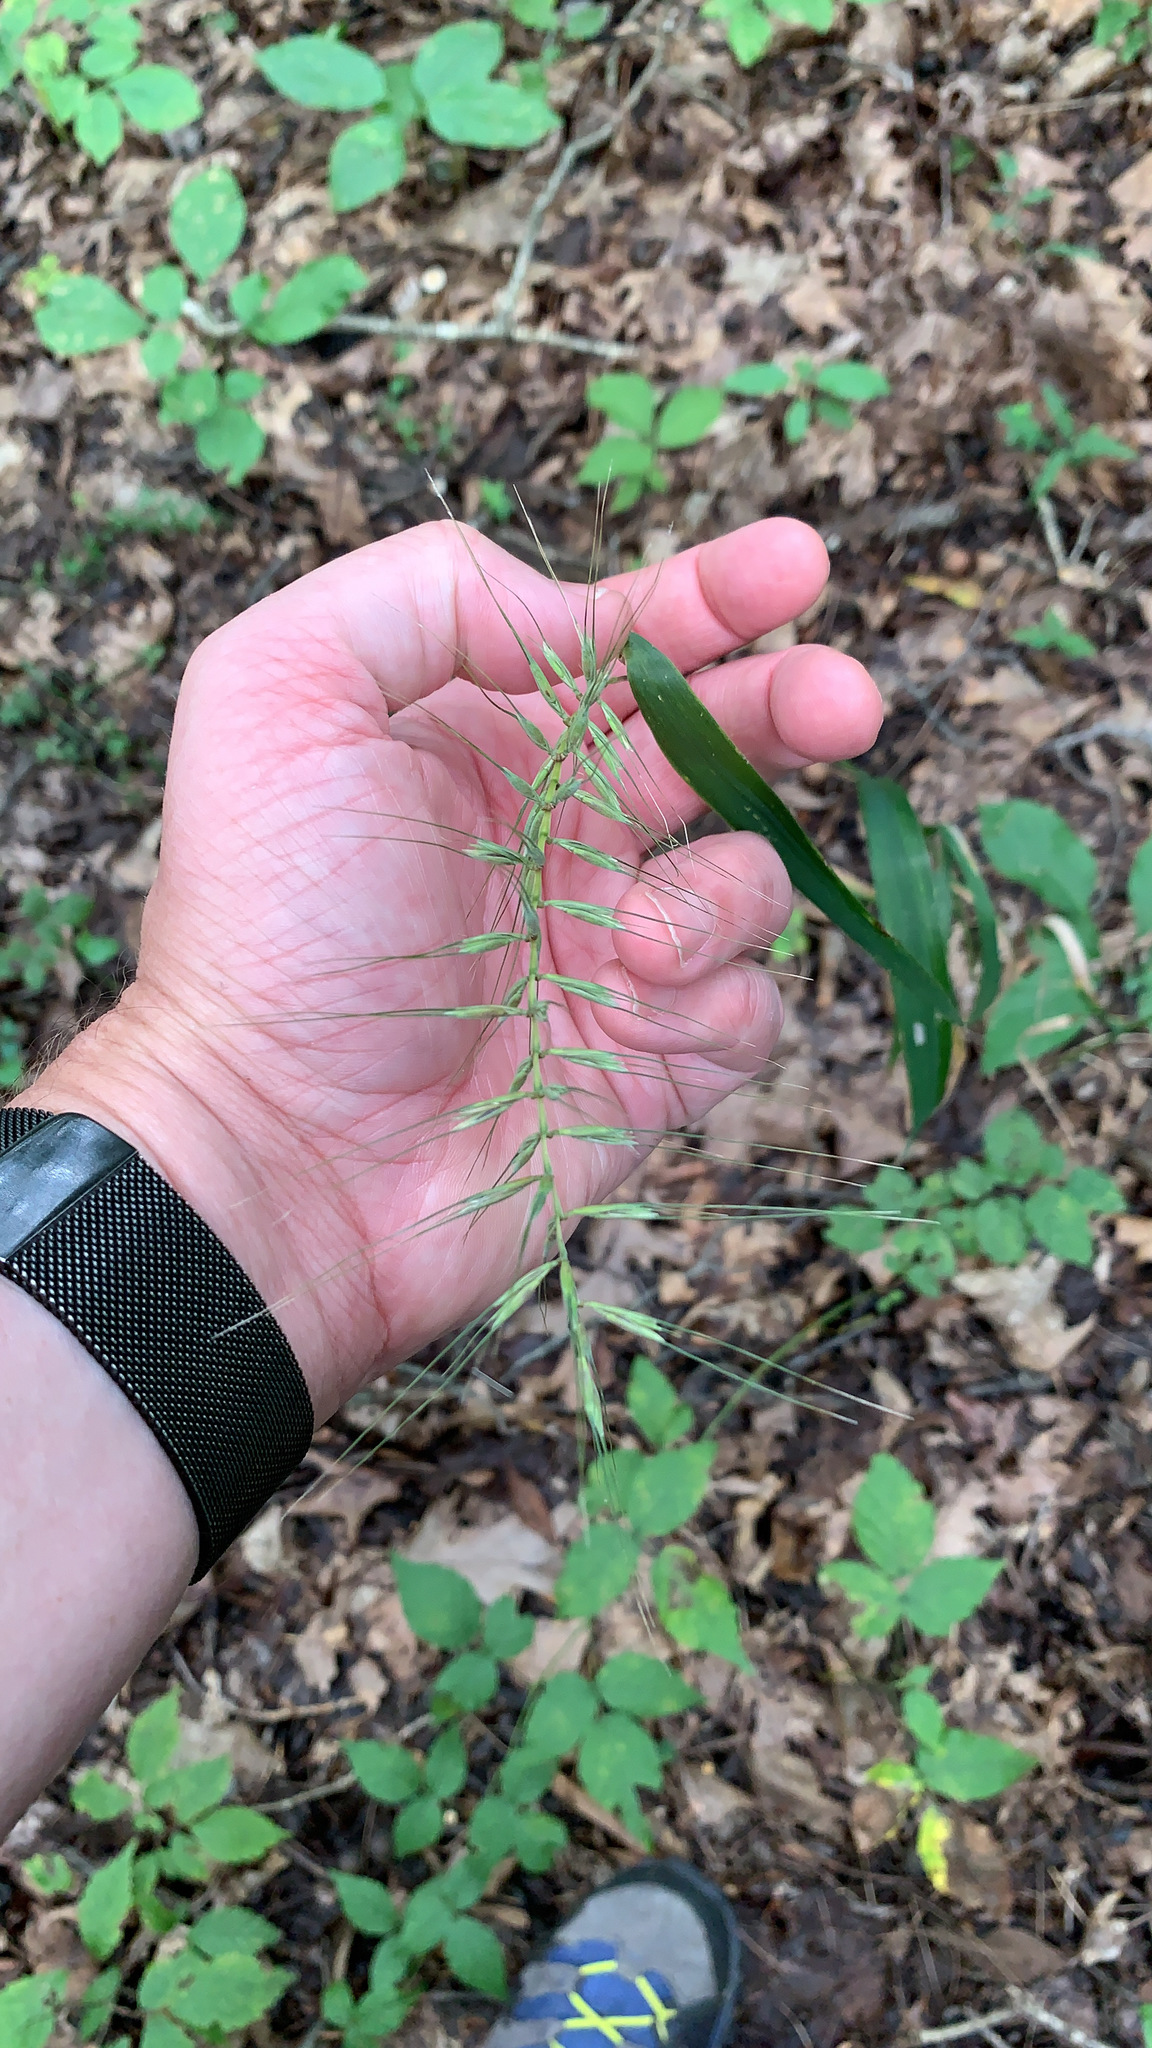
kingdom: Plantae
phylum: Tracheophyta
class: Liliopsida
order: Poales
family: Poaceae
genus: Elymus
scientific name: Elymus hystrix
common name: Bottlebrush grass
